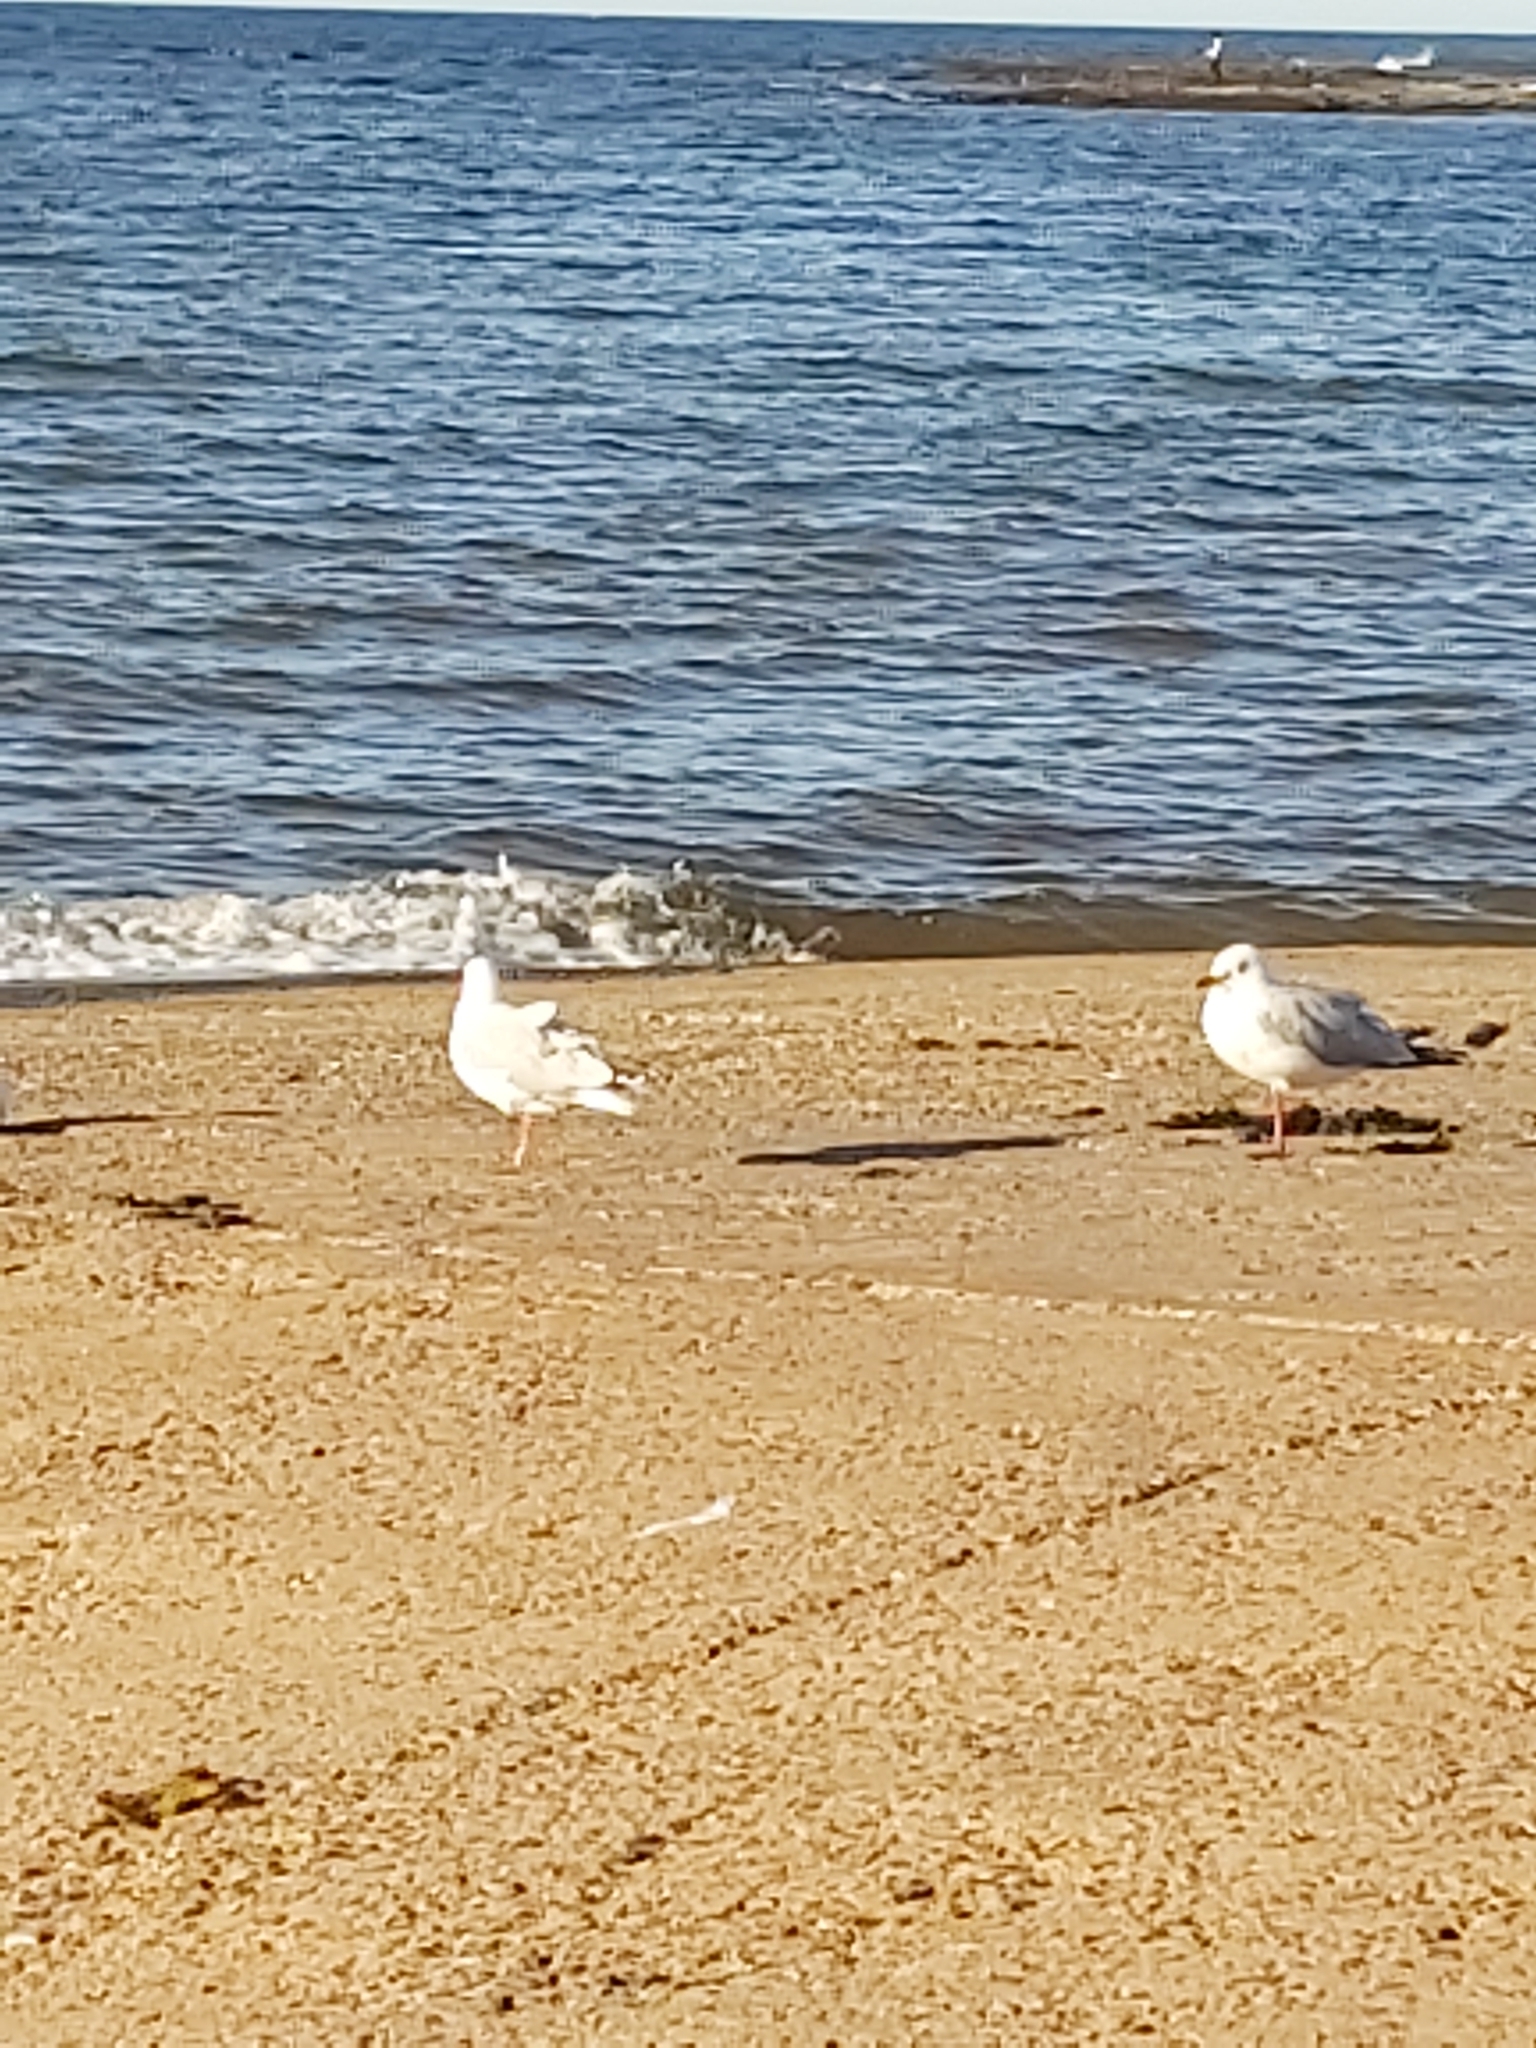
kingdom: Animalia
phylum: Chordata
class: Aves
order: Charadriiformes
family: Laridae
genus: Chroicocephalus
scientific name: Chroicocephalus novaehollandiae
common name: Silver gull
